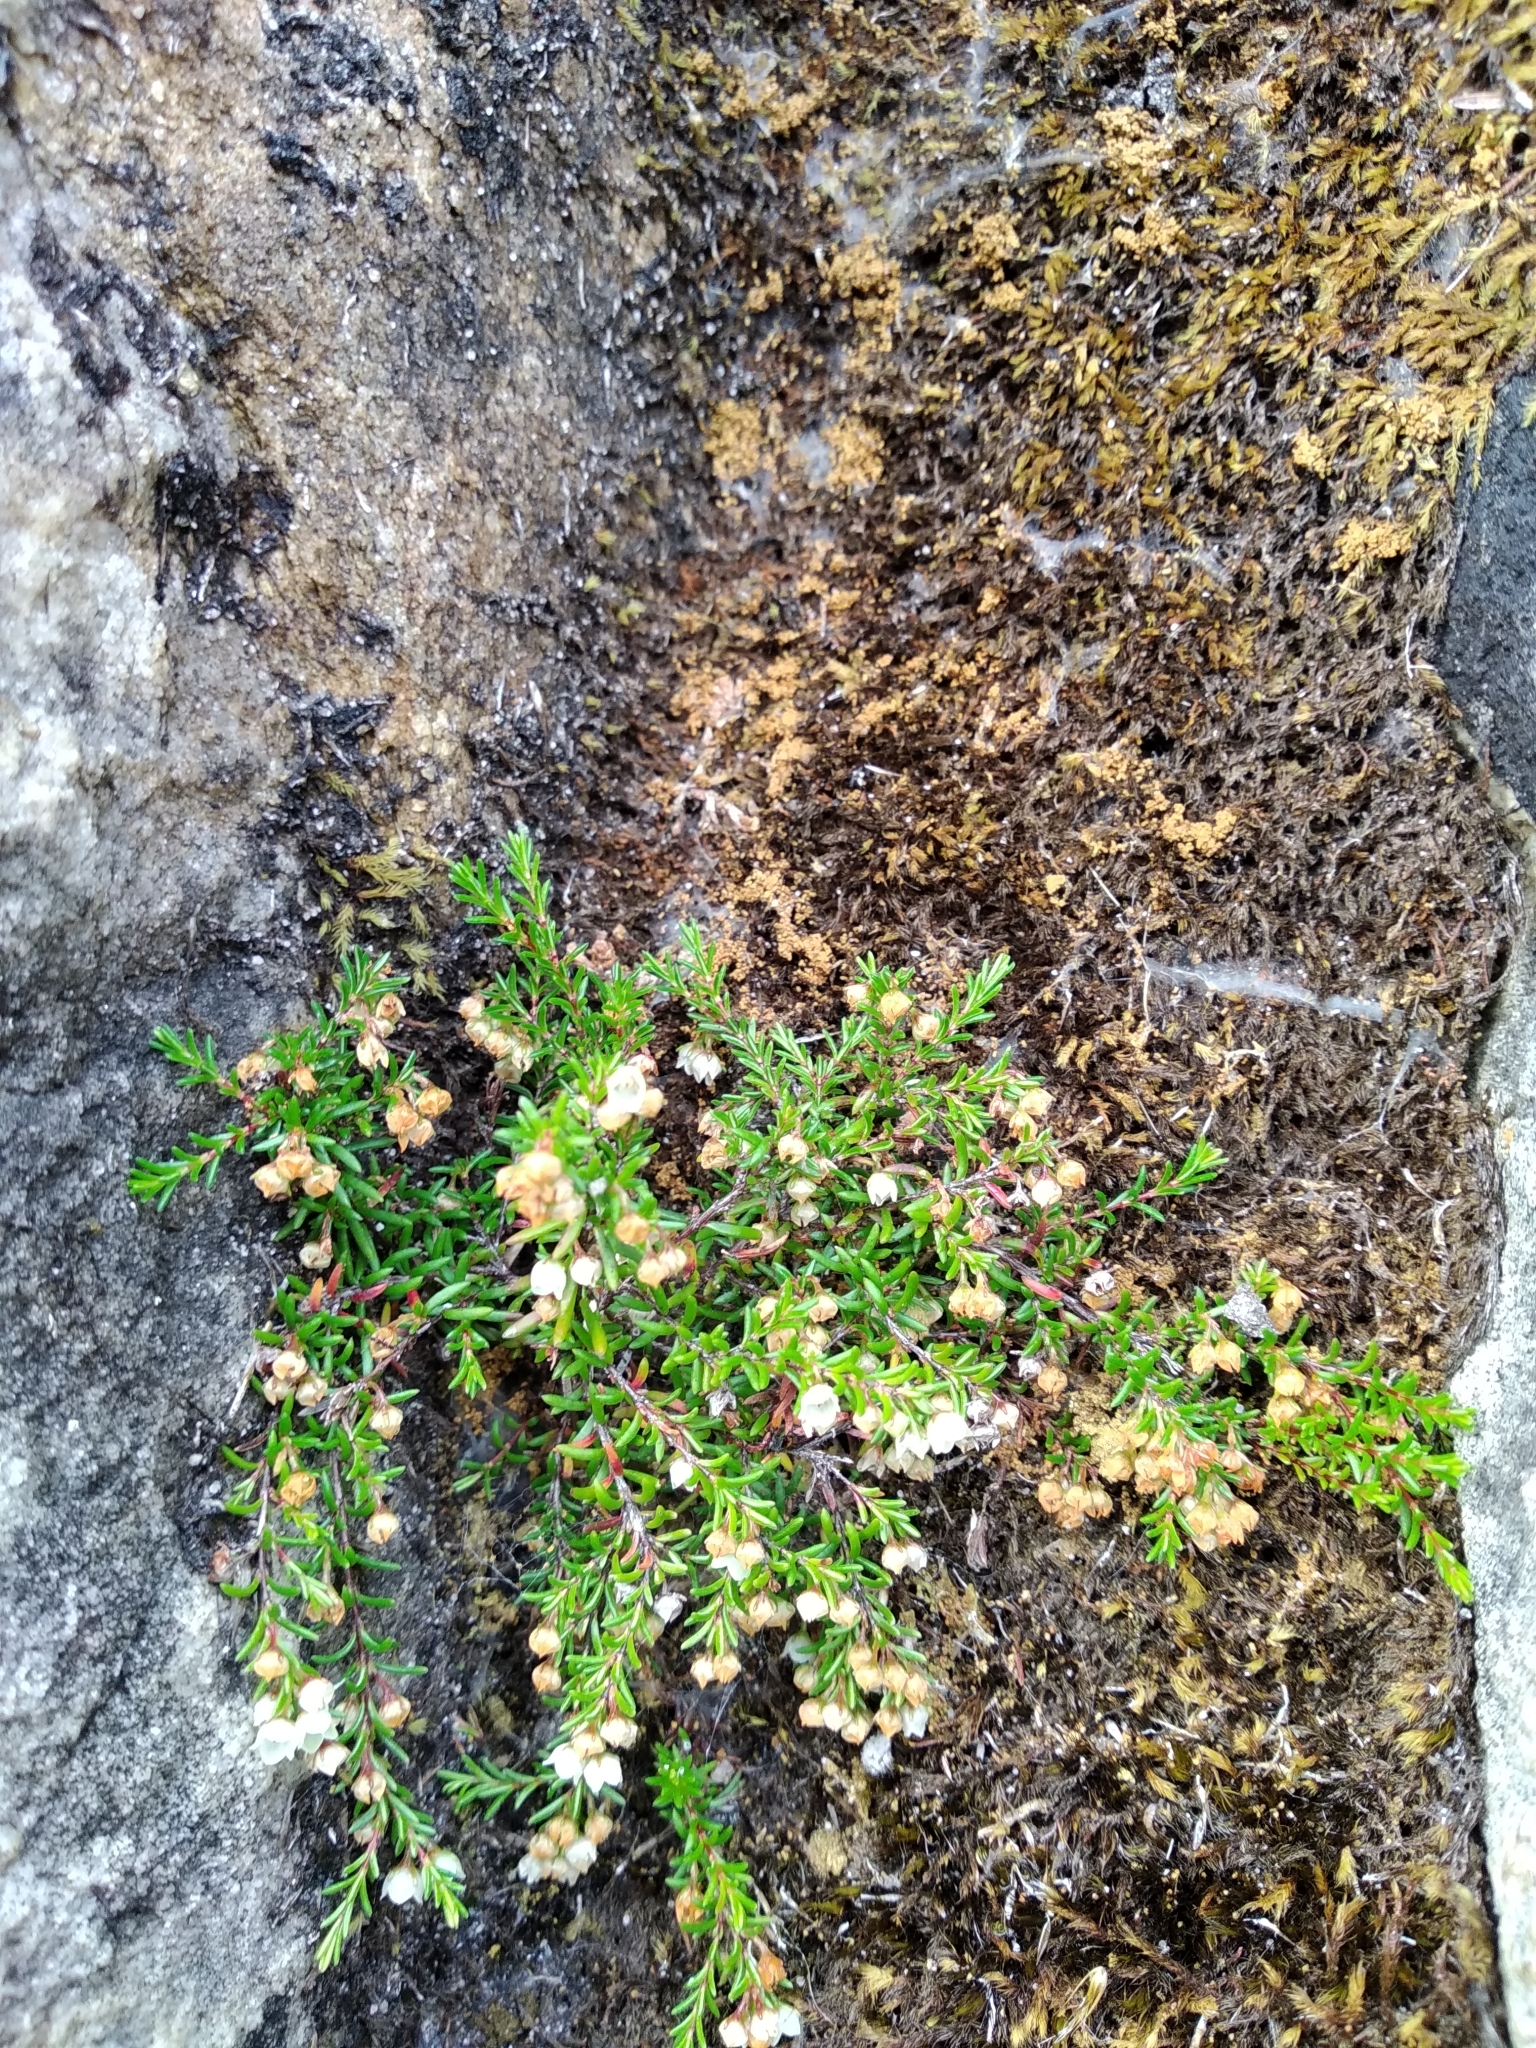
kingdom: Plantae
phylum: Tracheophyta
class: Magnoliopsida
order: Ericales
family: Ericaceae
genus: Erica
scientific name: Erica tenuis
